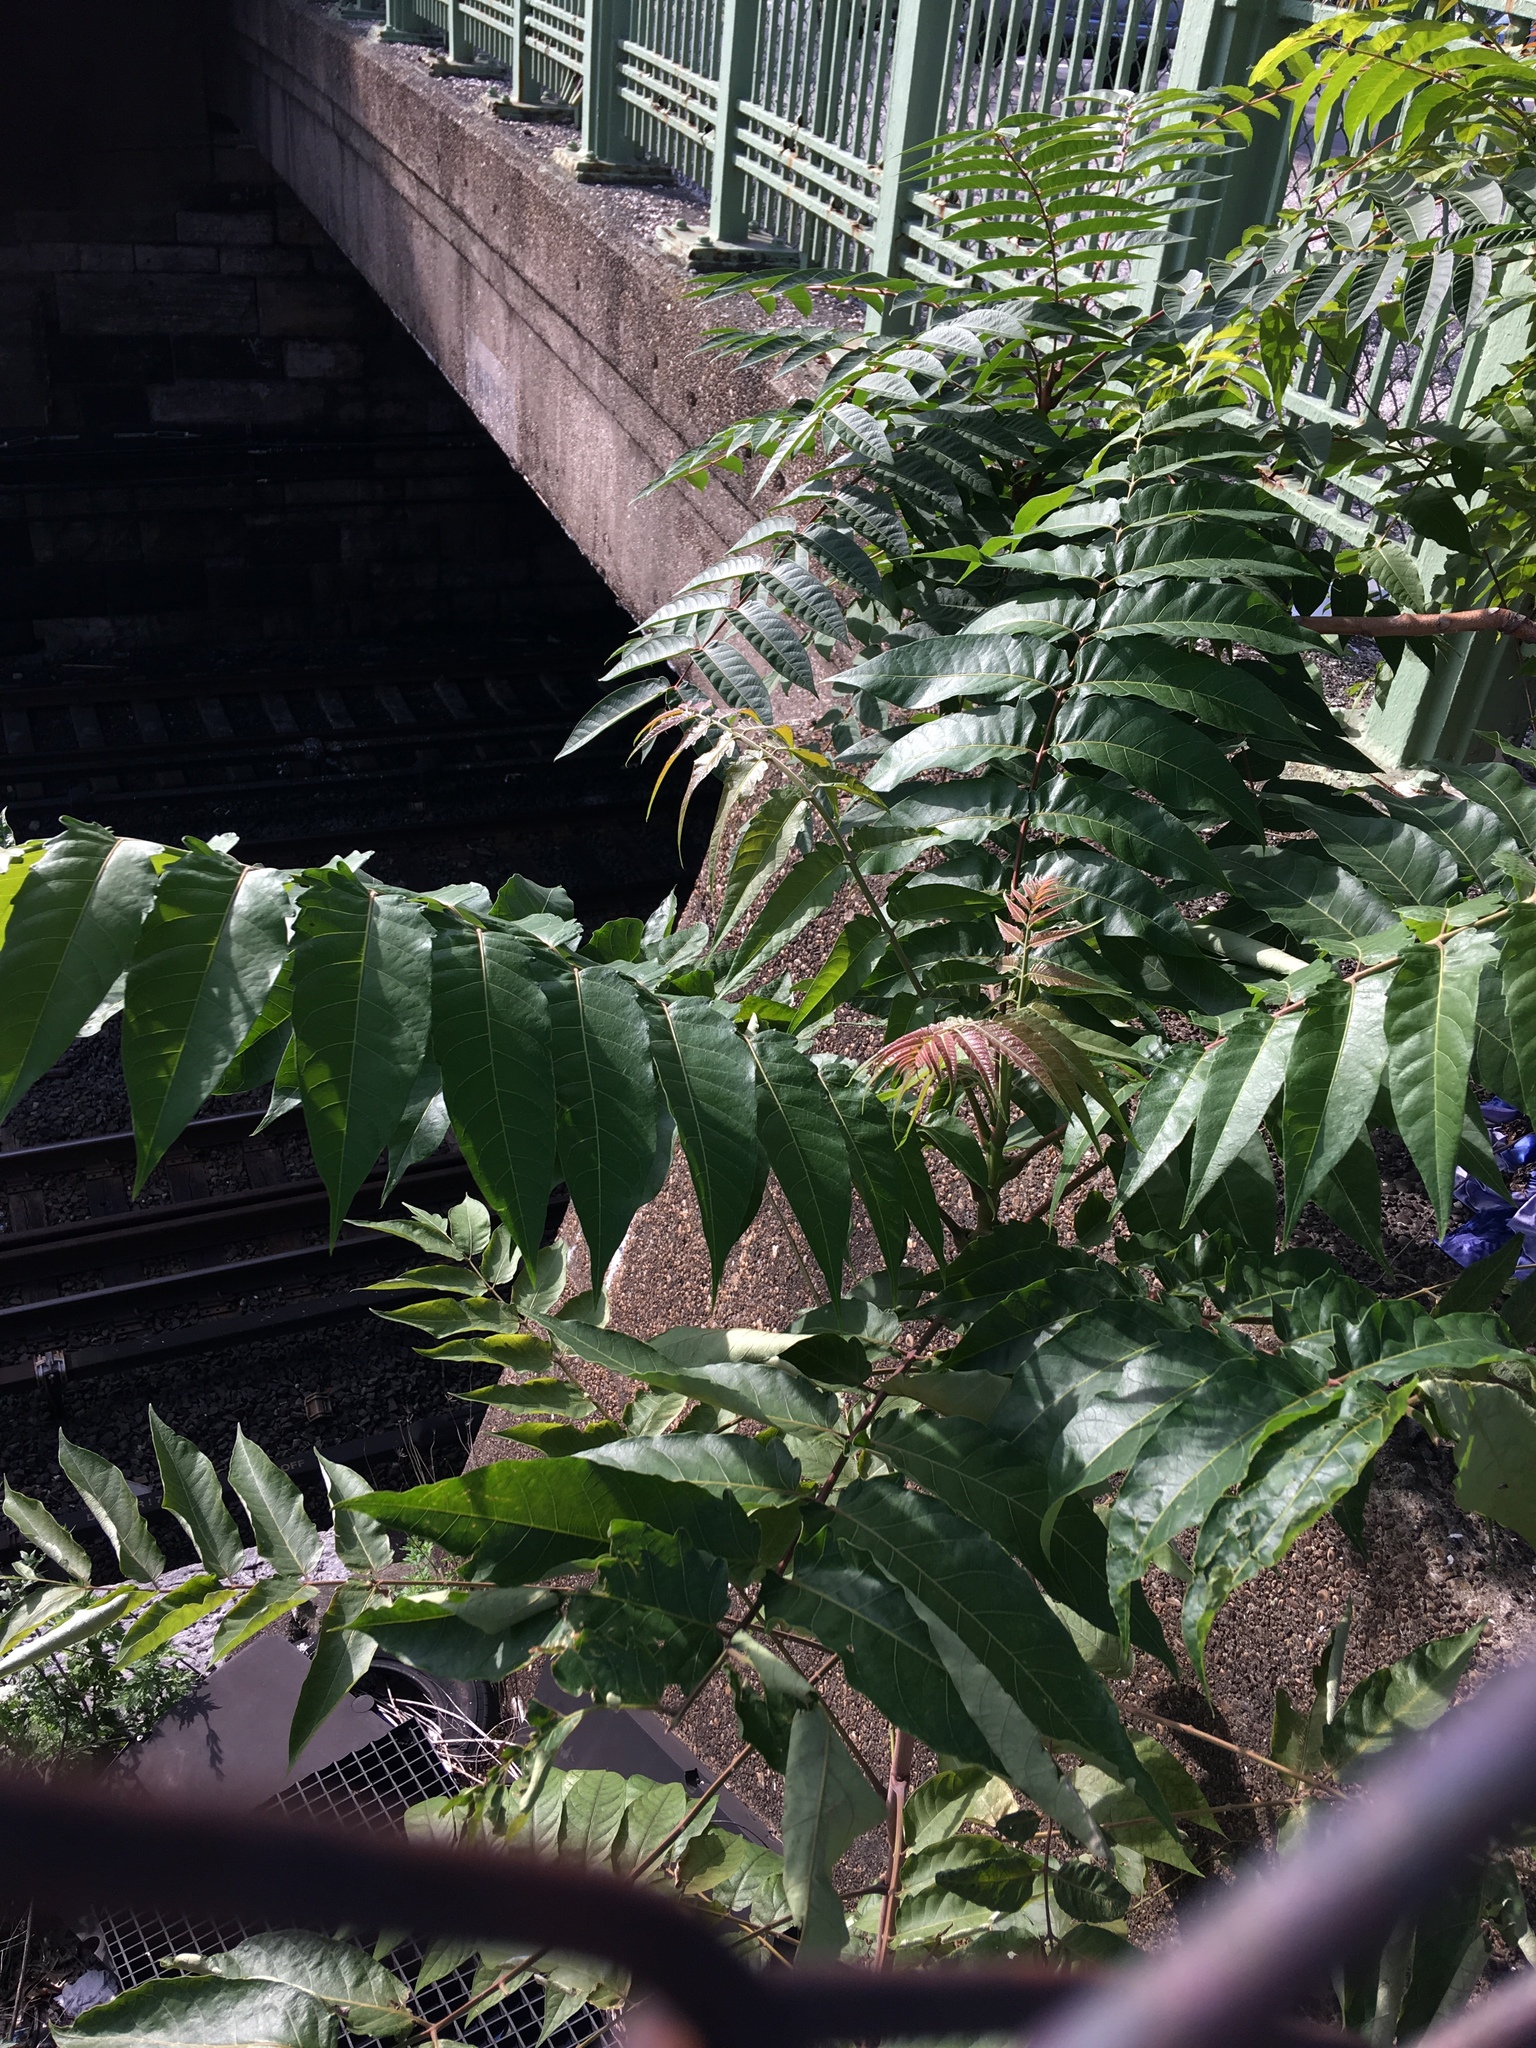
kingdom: Plantae
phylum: Tracheophyta
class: Magnoliopsida
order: Sapindales
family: Simaroubaceae
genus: Ailanthus
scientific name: Ailanthus altissima
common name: Tree-of-heaven
